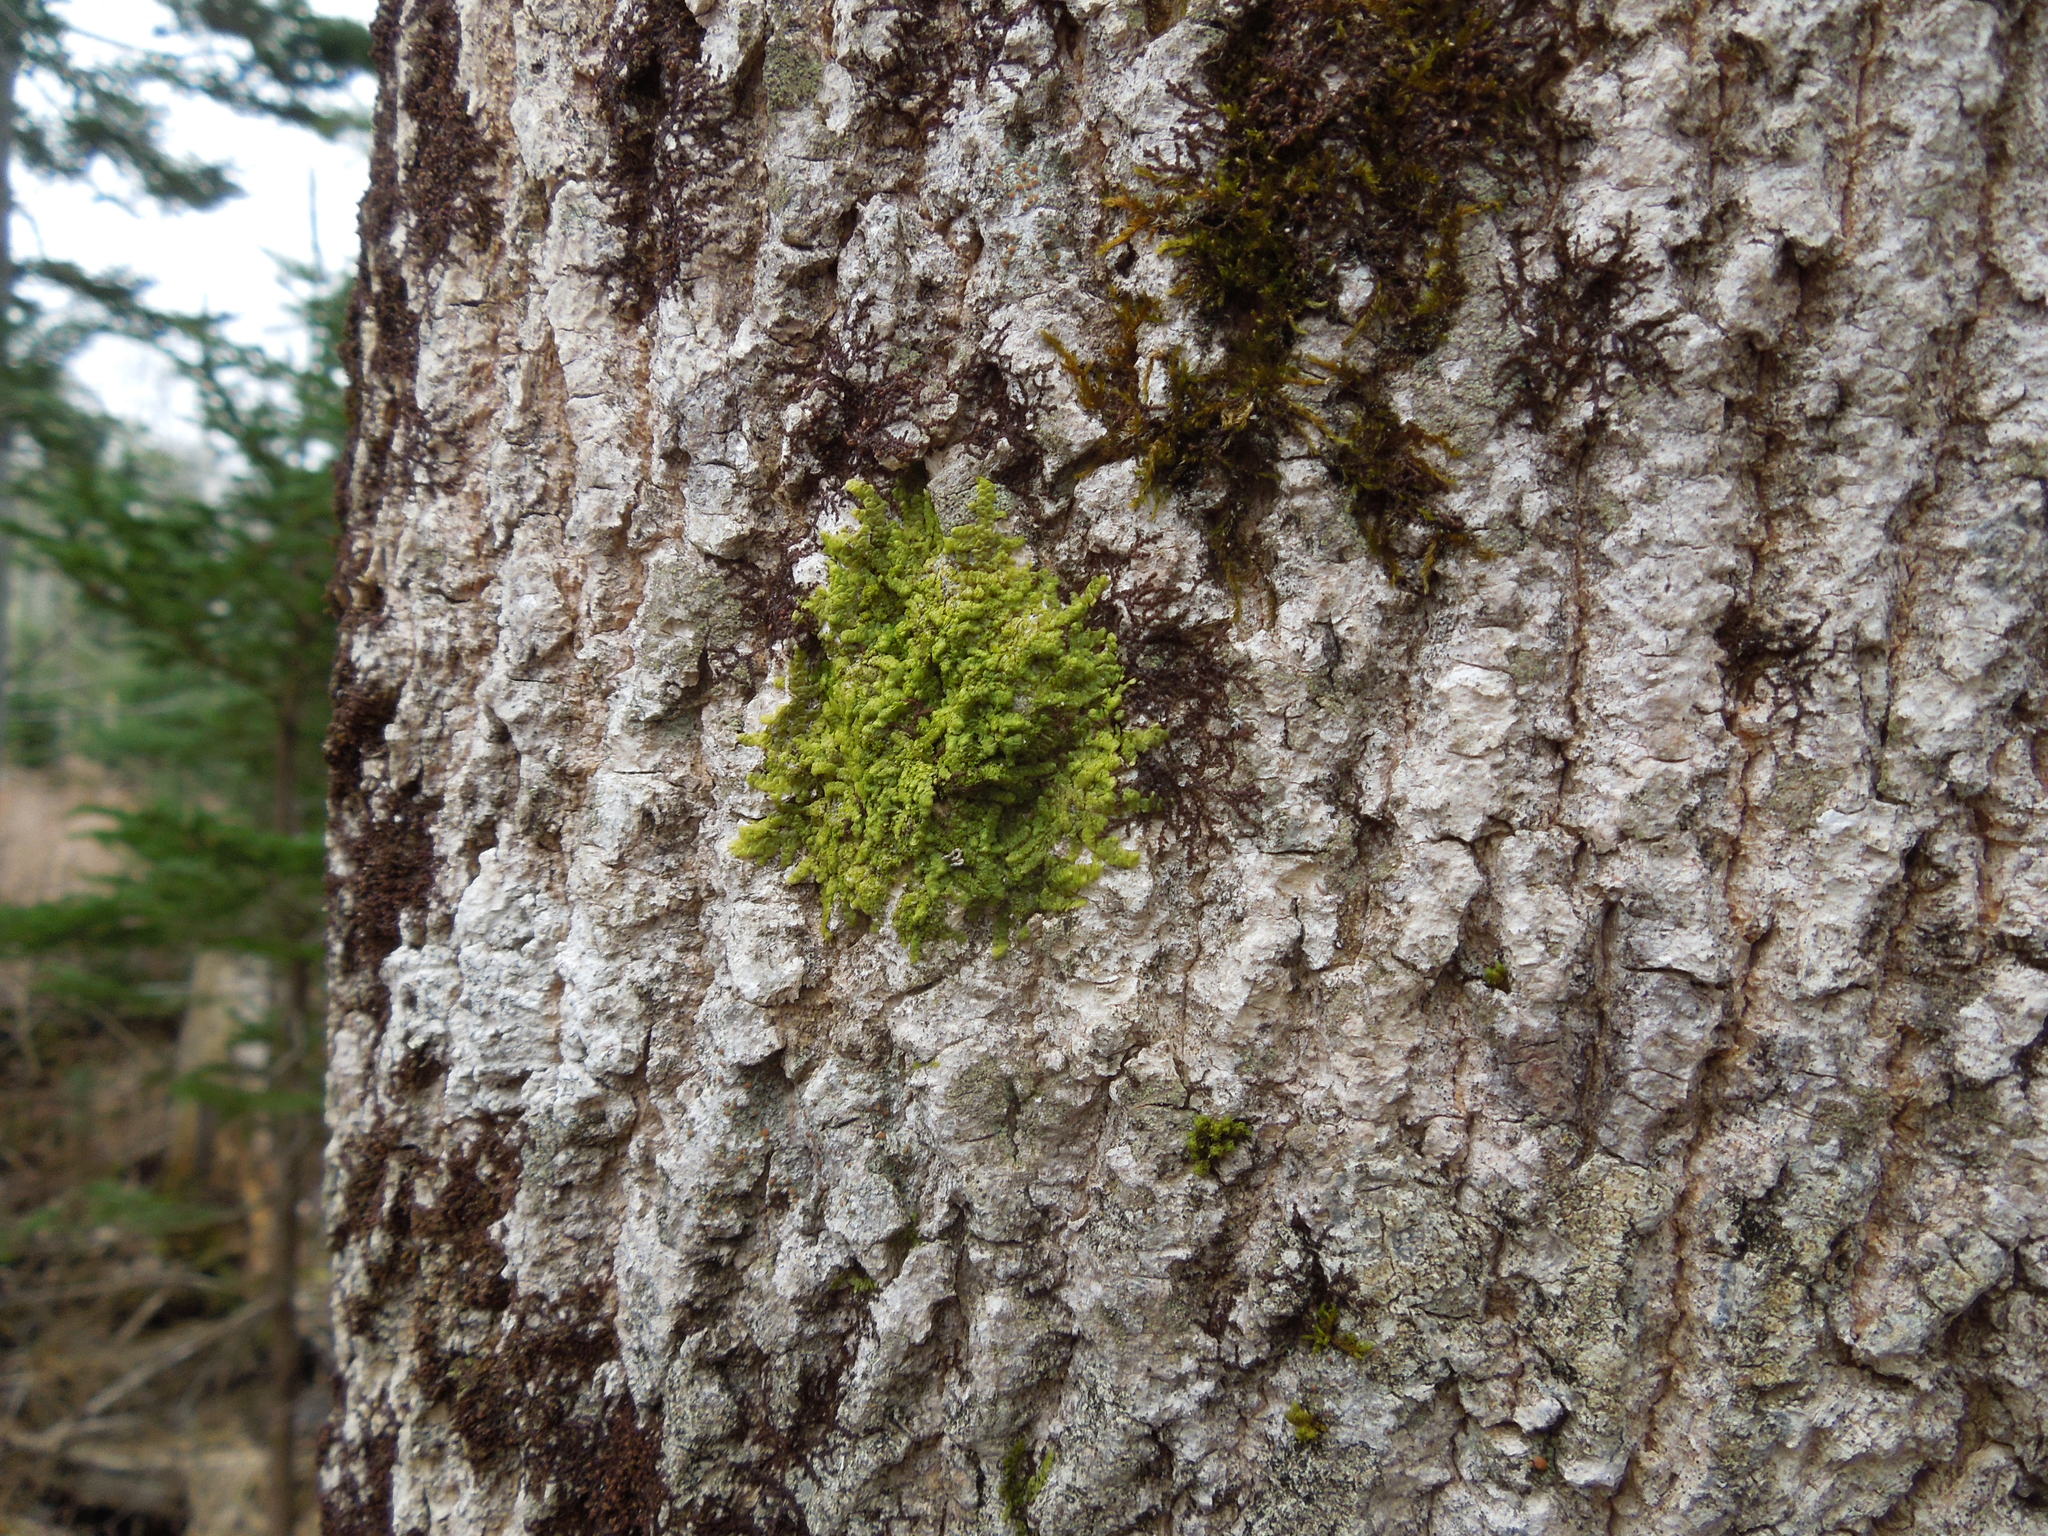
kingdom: Plantae
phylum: Marchantiophyta
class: Jungermanniopsida
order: Porellales
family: Radulaceae
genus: Radula
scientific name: Radula complanata
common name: Flat-leaved scalewort
